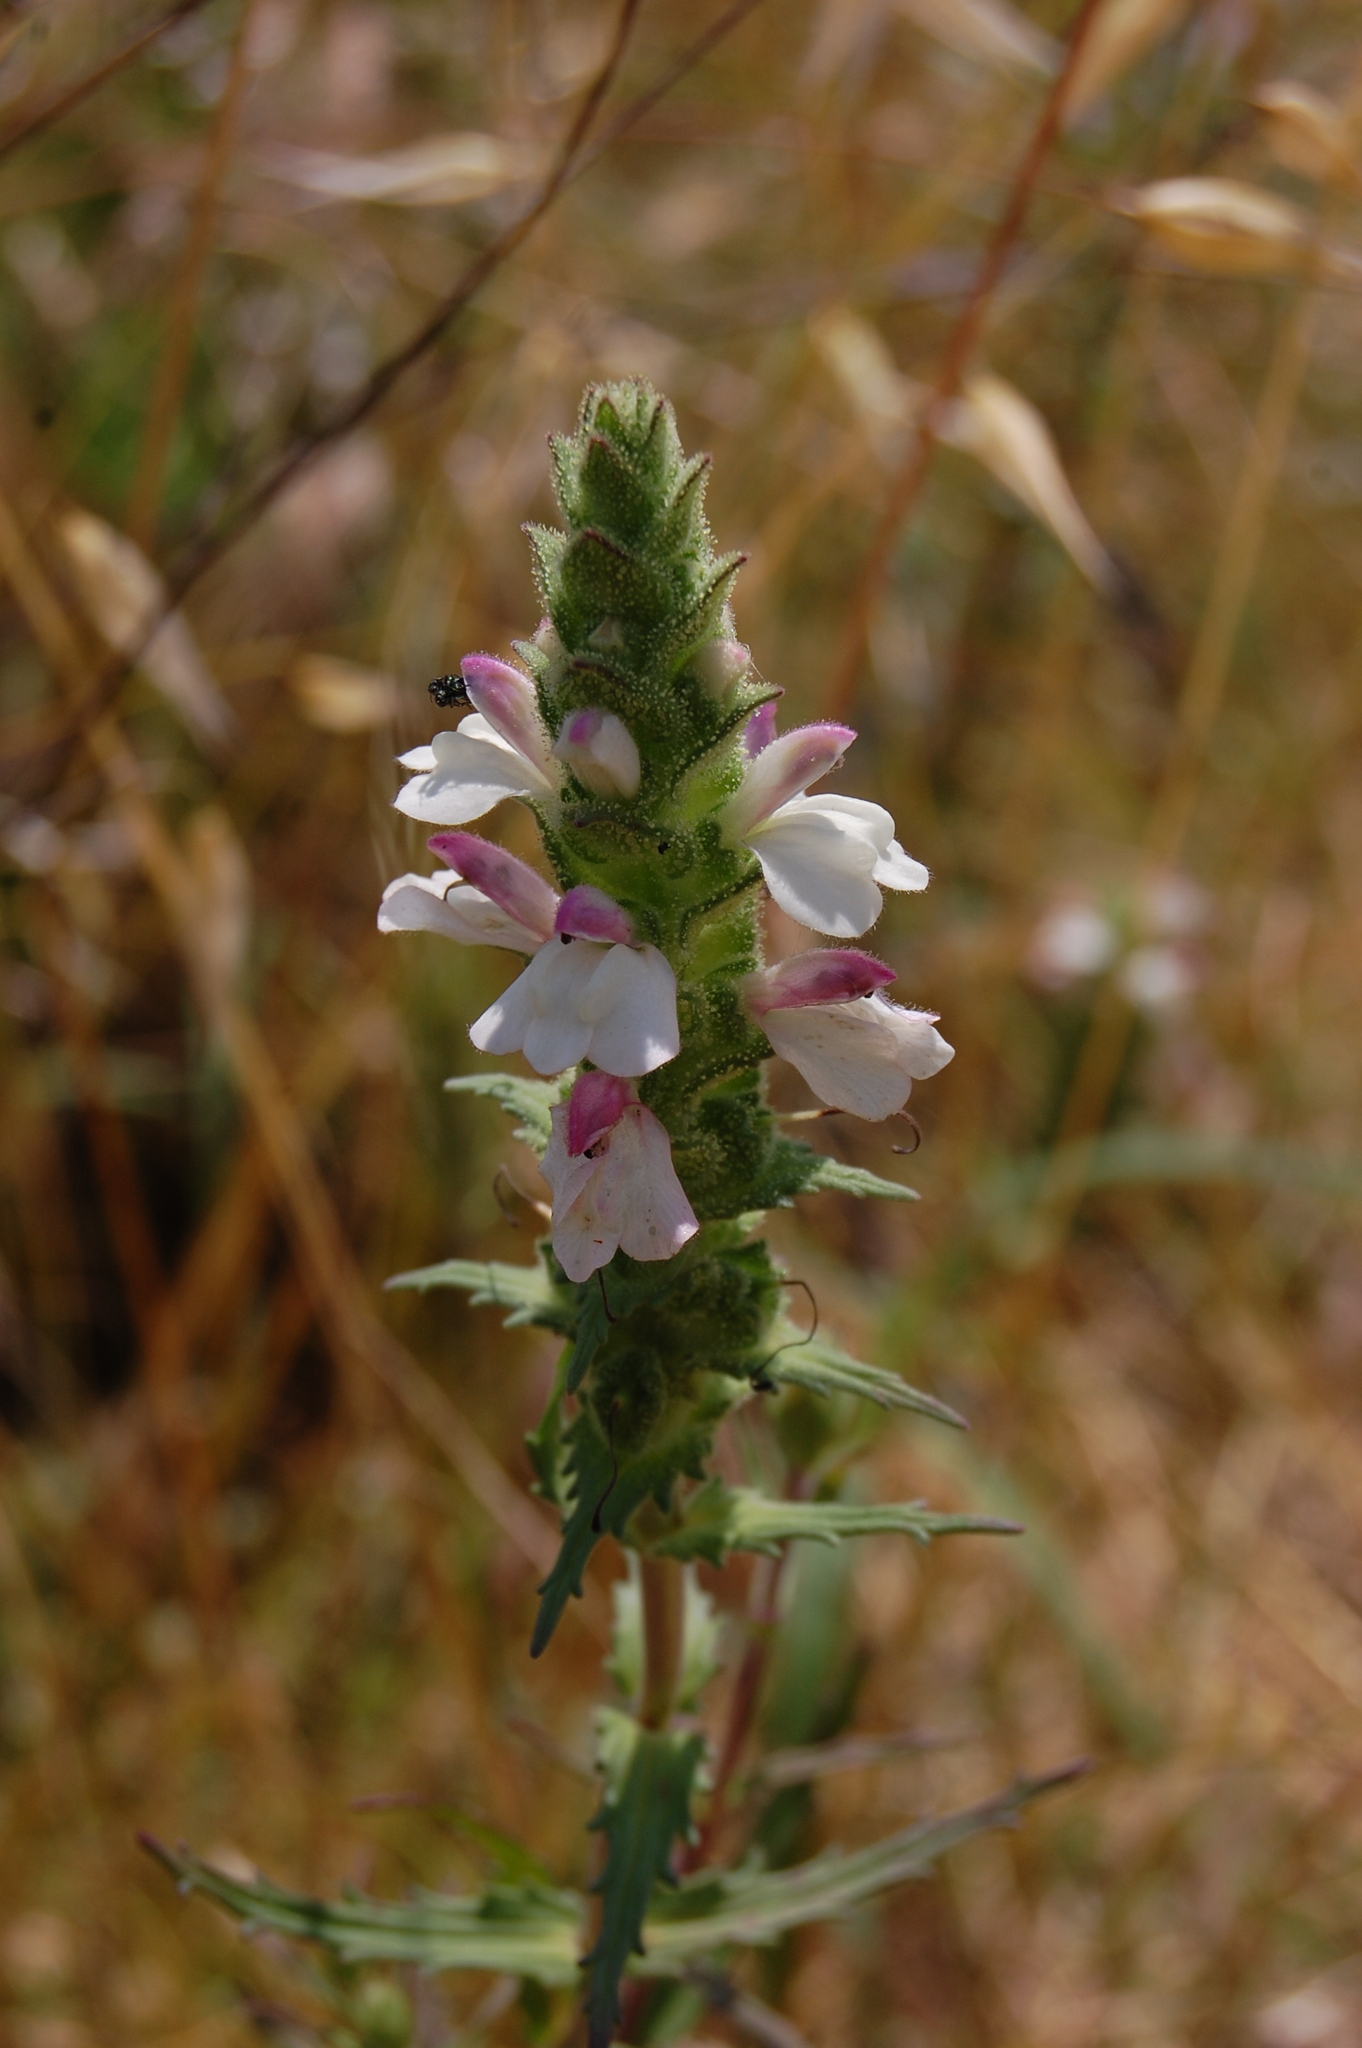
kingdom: Plantae
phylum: Tracheophyta
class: Magnoliopsida
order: Lamiales
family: Orobanchaceae
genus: Bellardia
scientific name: Bellardia trixago
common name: Mediterranean lineseed
